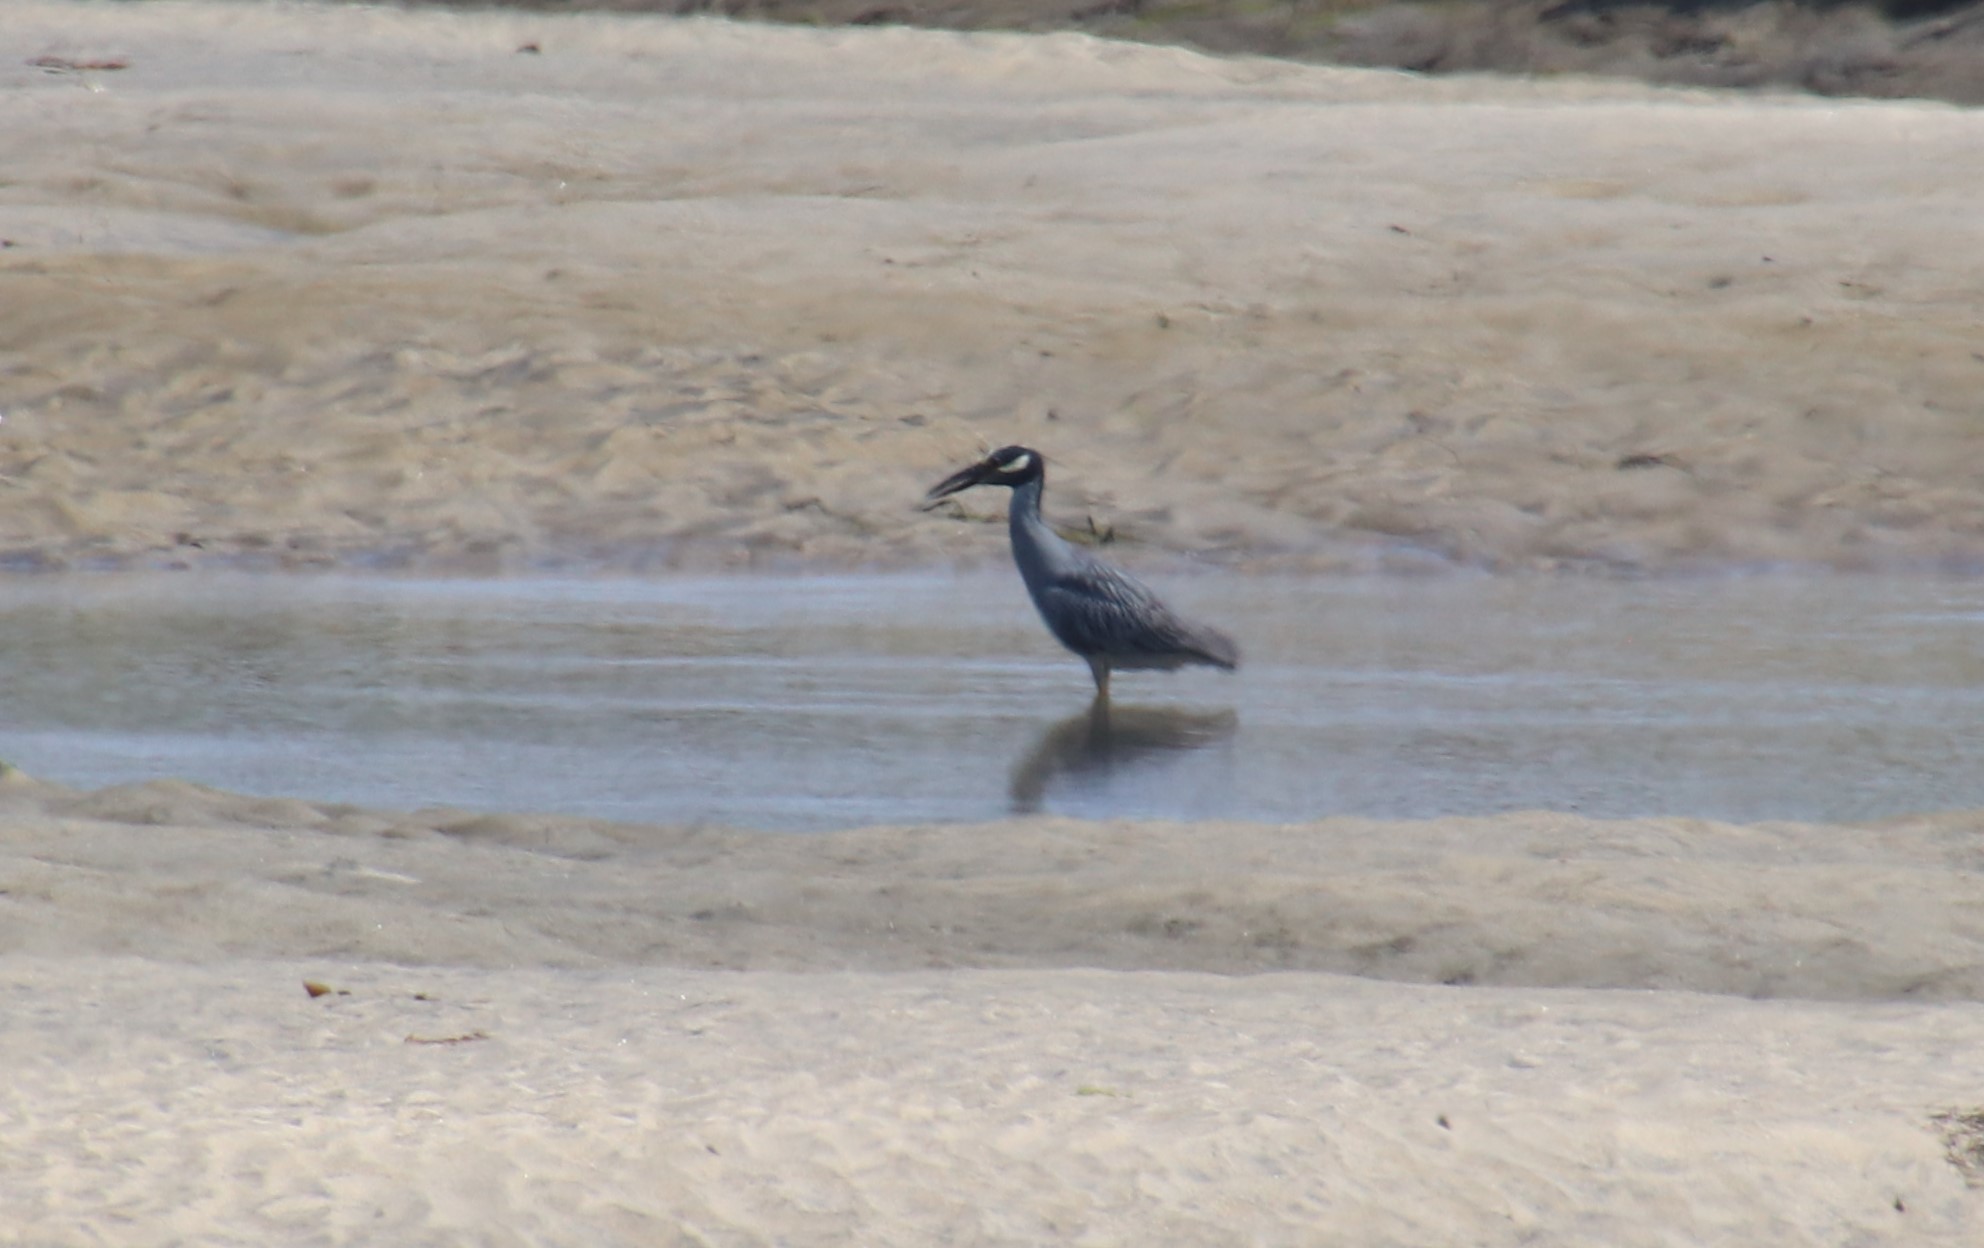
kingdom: Animalia
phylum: Chordata
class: Aves
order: Pelecaniformes
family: Ardeidae
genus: Nyctanassa
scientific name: Nyctanassa violacea
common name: Yellow-crowned night heron
